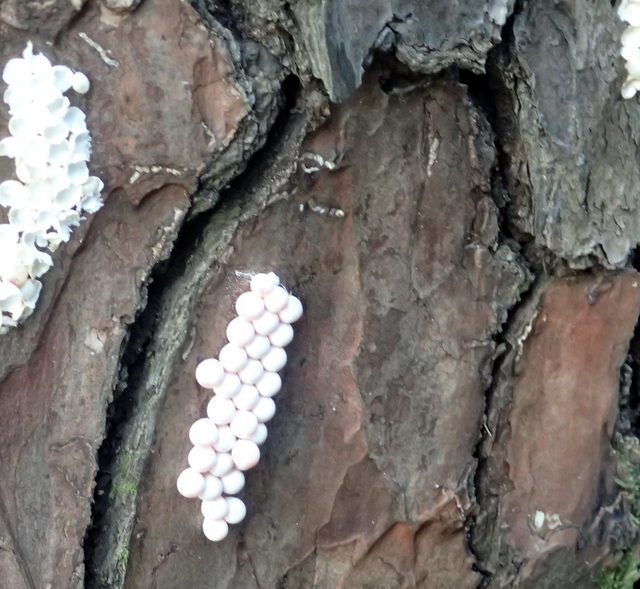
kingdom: Animalia
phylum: Mollusca
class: Gastropoda
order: Architaenioglossa
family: Ampullariidae
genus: Pomacea
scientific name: Pomacea paludosa
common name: Florida applesnail
